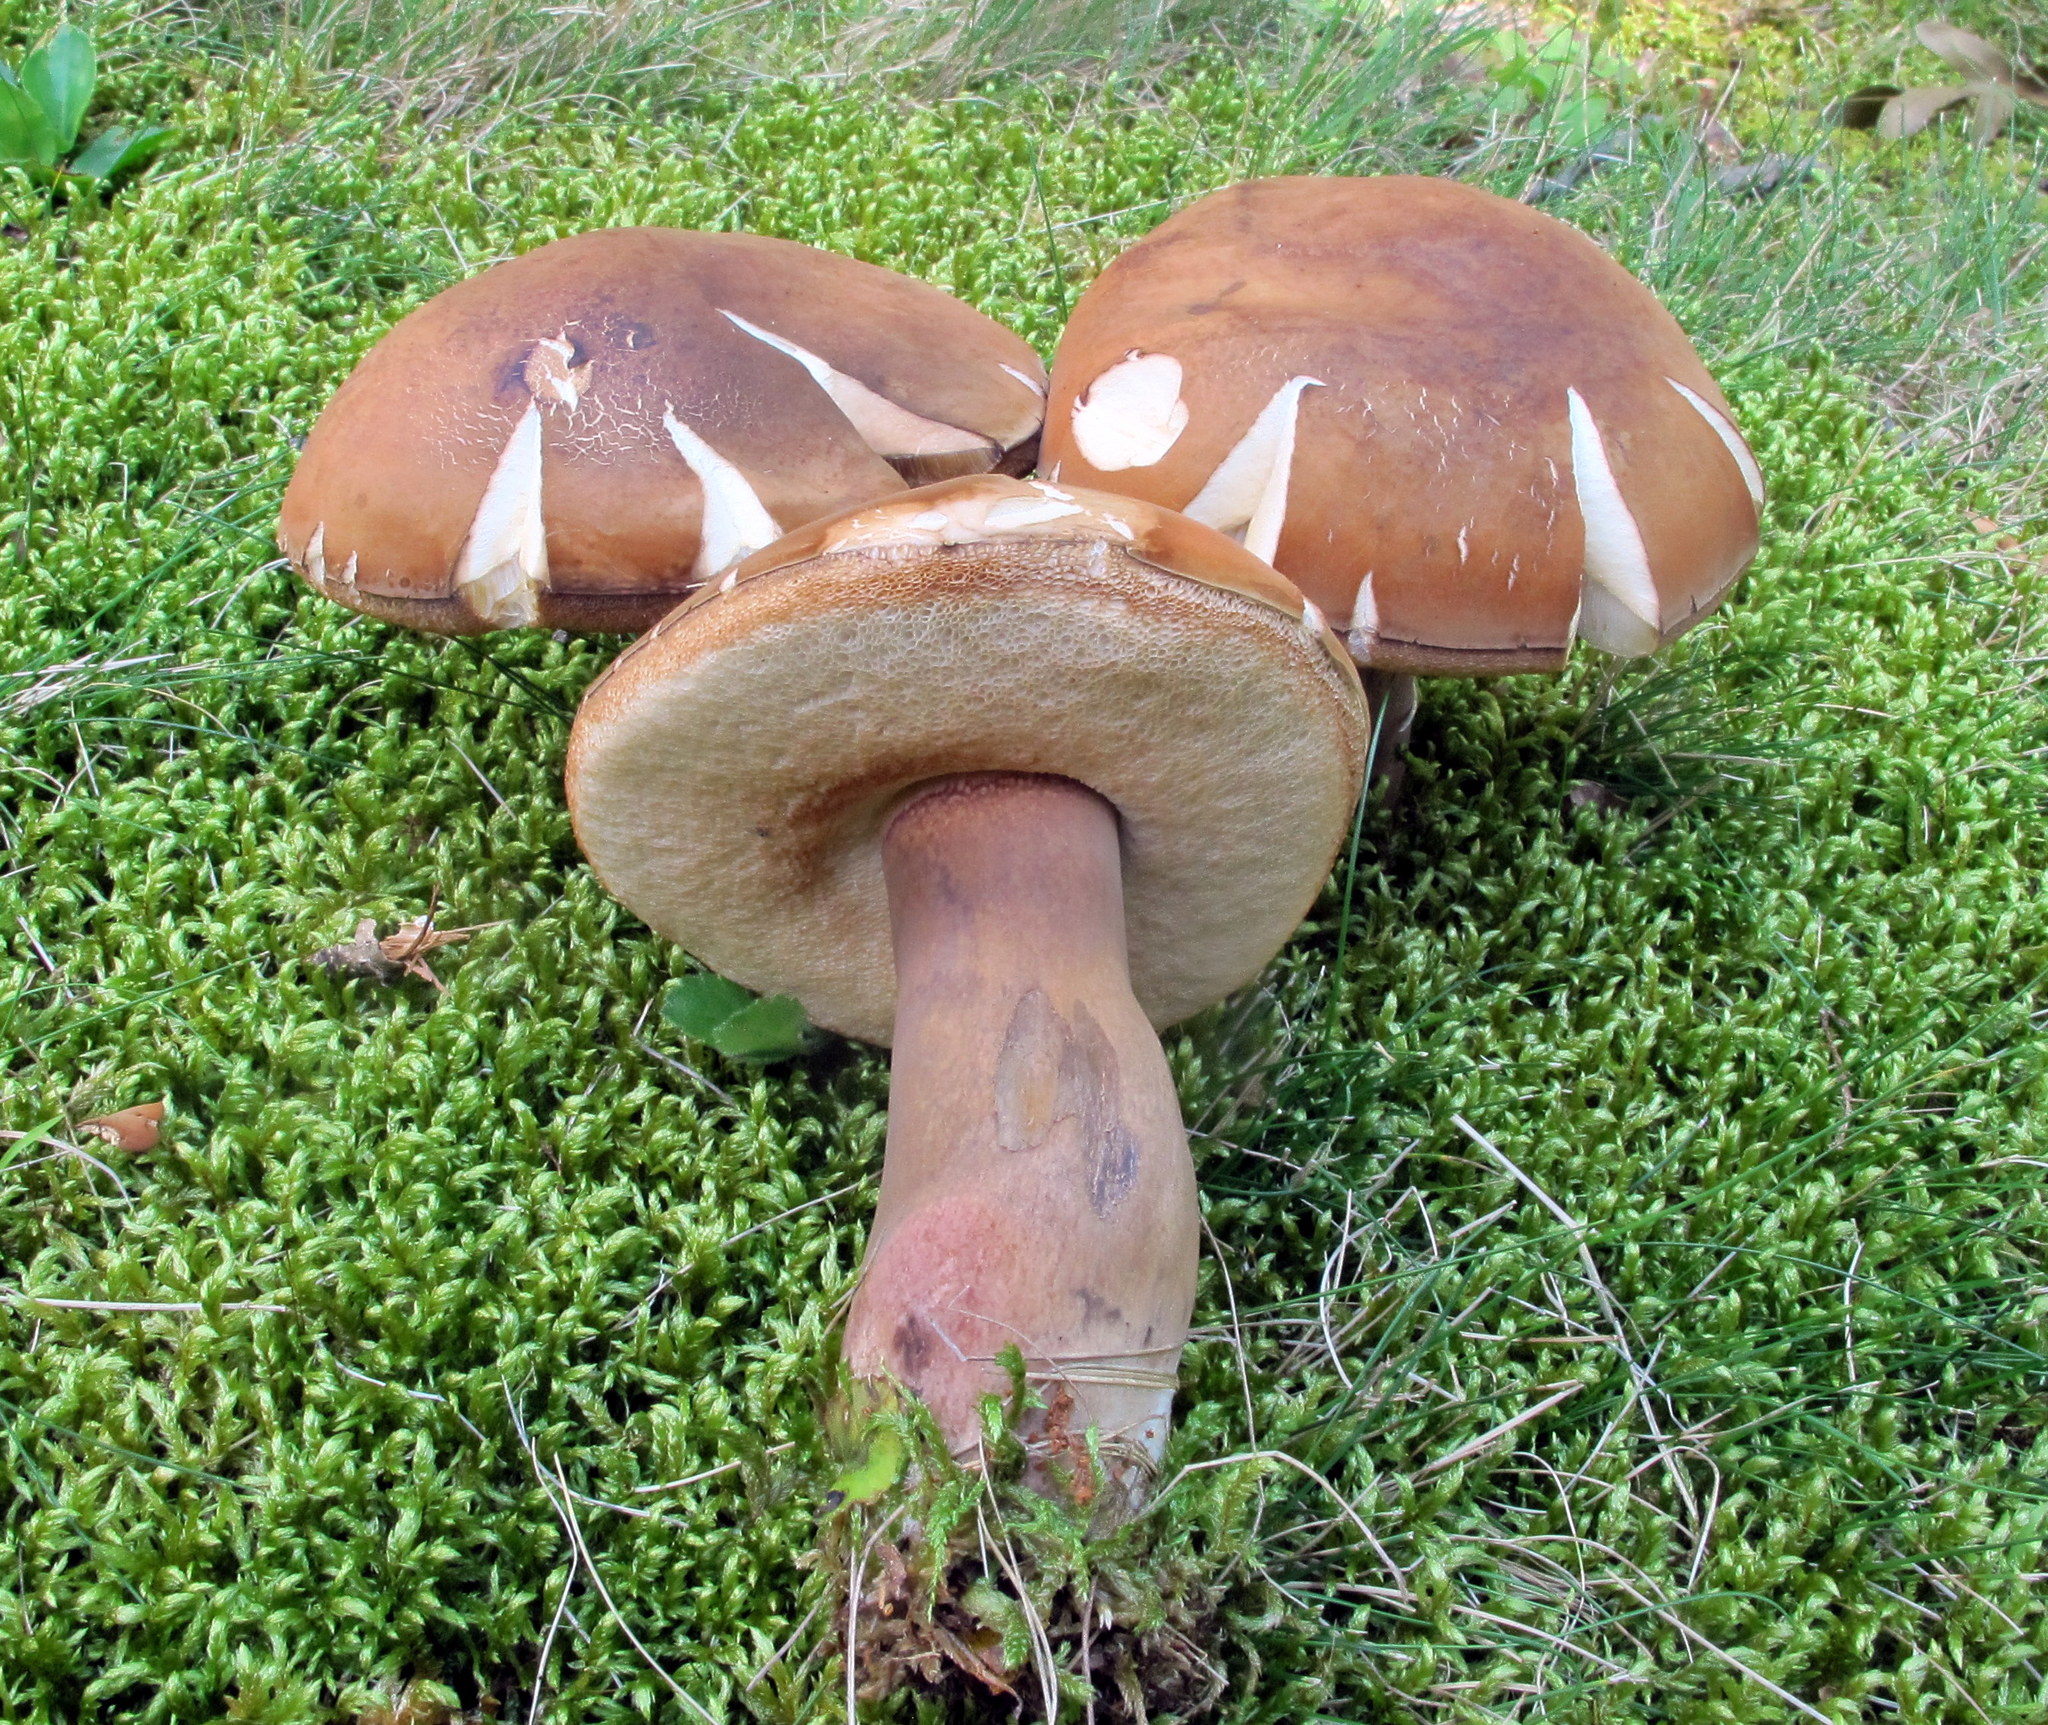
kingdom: Fungi
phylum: Basidiomycota
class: Agaricomycetes
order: Boletales
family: Boletaceae
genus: Tylopilus
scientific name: Tylopilus badiceps
